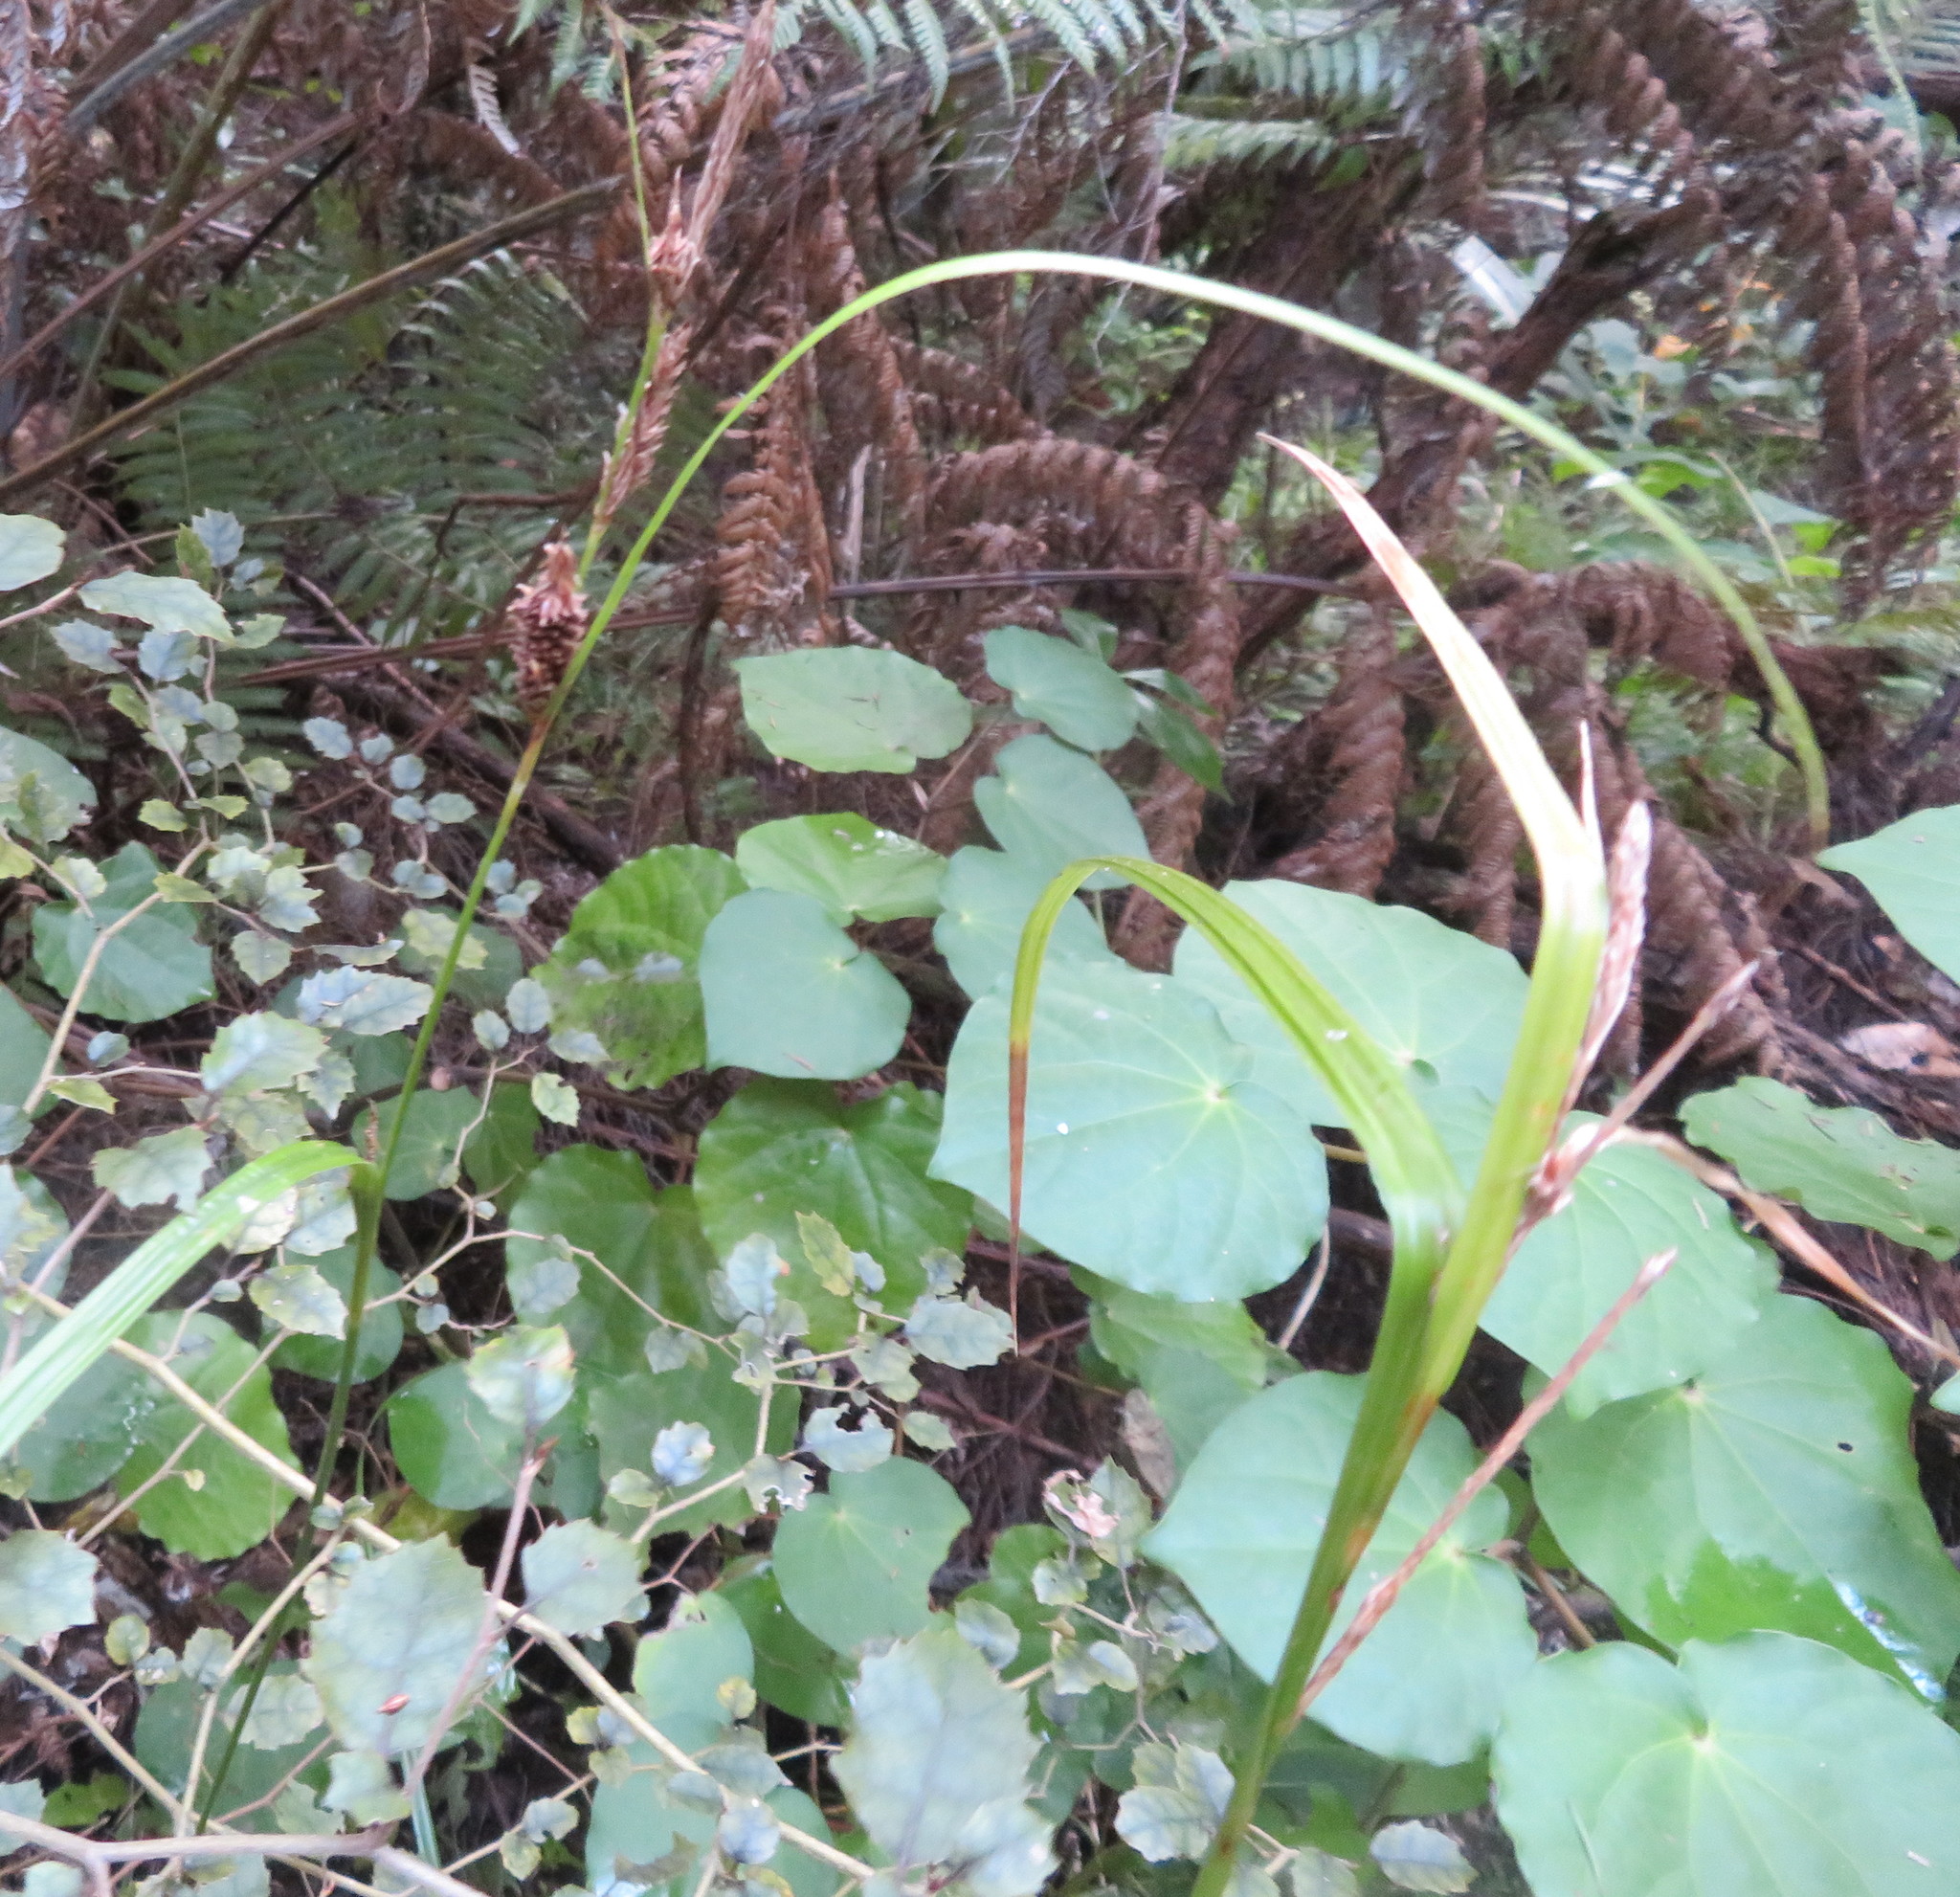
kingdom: Plantae
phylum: Tracheophyta
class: Magnoliopsida
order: Piperales
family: Piperaceae
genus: Macropiper
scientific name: Macropiper excelsum
